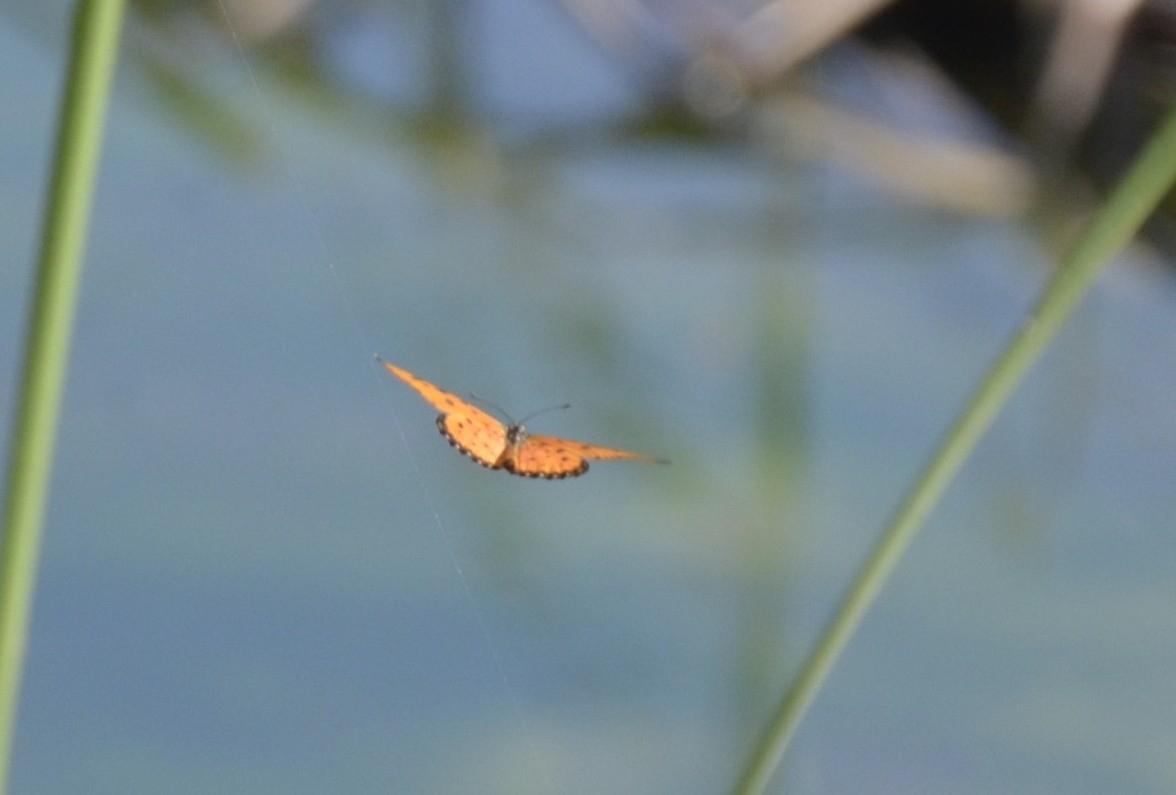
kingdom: Animalia
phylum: Arthropoda
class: Insecta
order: Lepidoptera
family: Nymphalidae
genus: Acraea
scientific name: Acraea terpsicore
